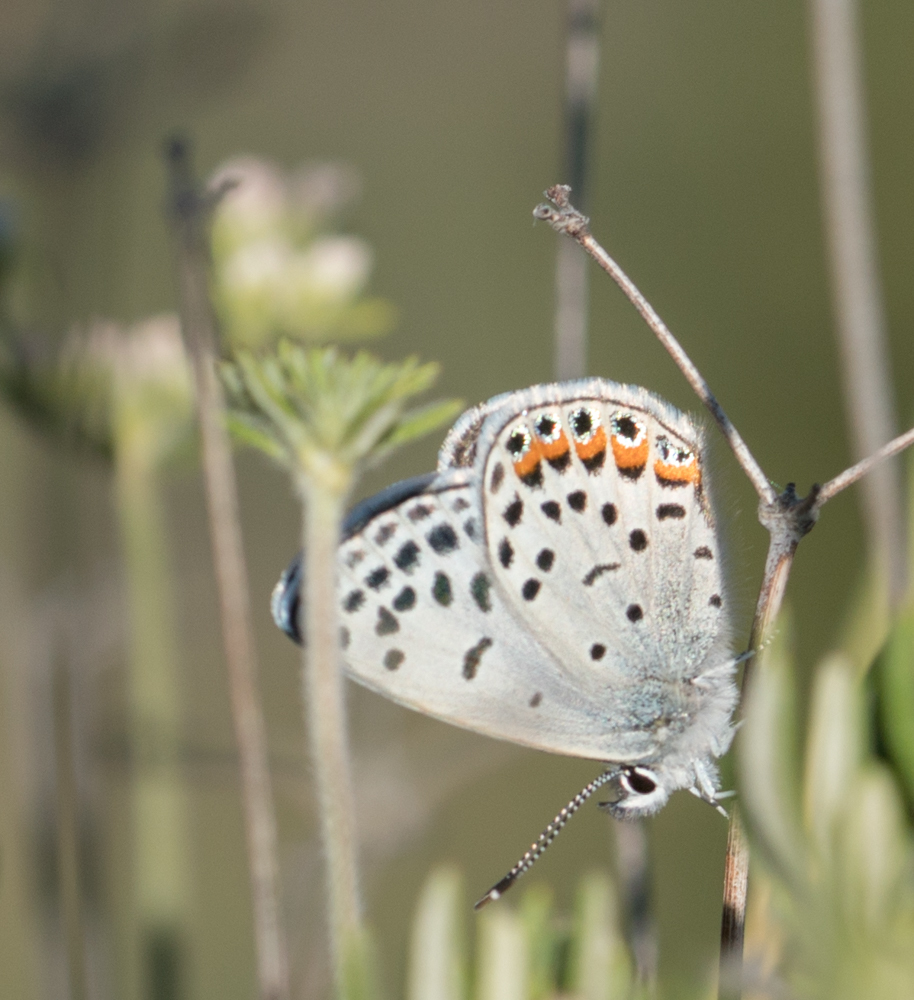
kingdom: Animalia
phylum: Arthropoda
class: Insecta
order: Lepidoptera
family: Lycaenidae
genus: Icaricia
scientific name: Icaricia acmon
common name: Acmon blue
